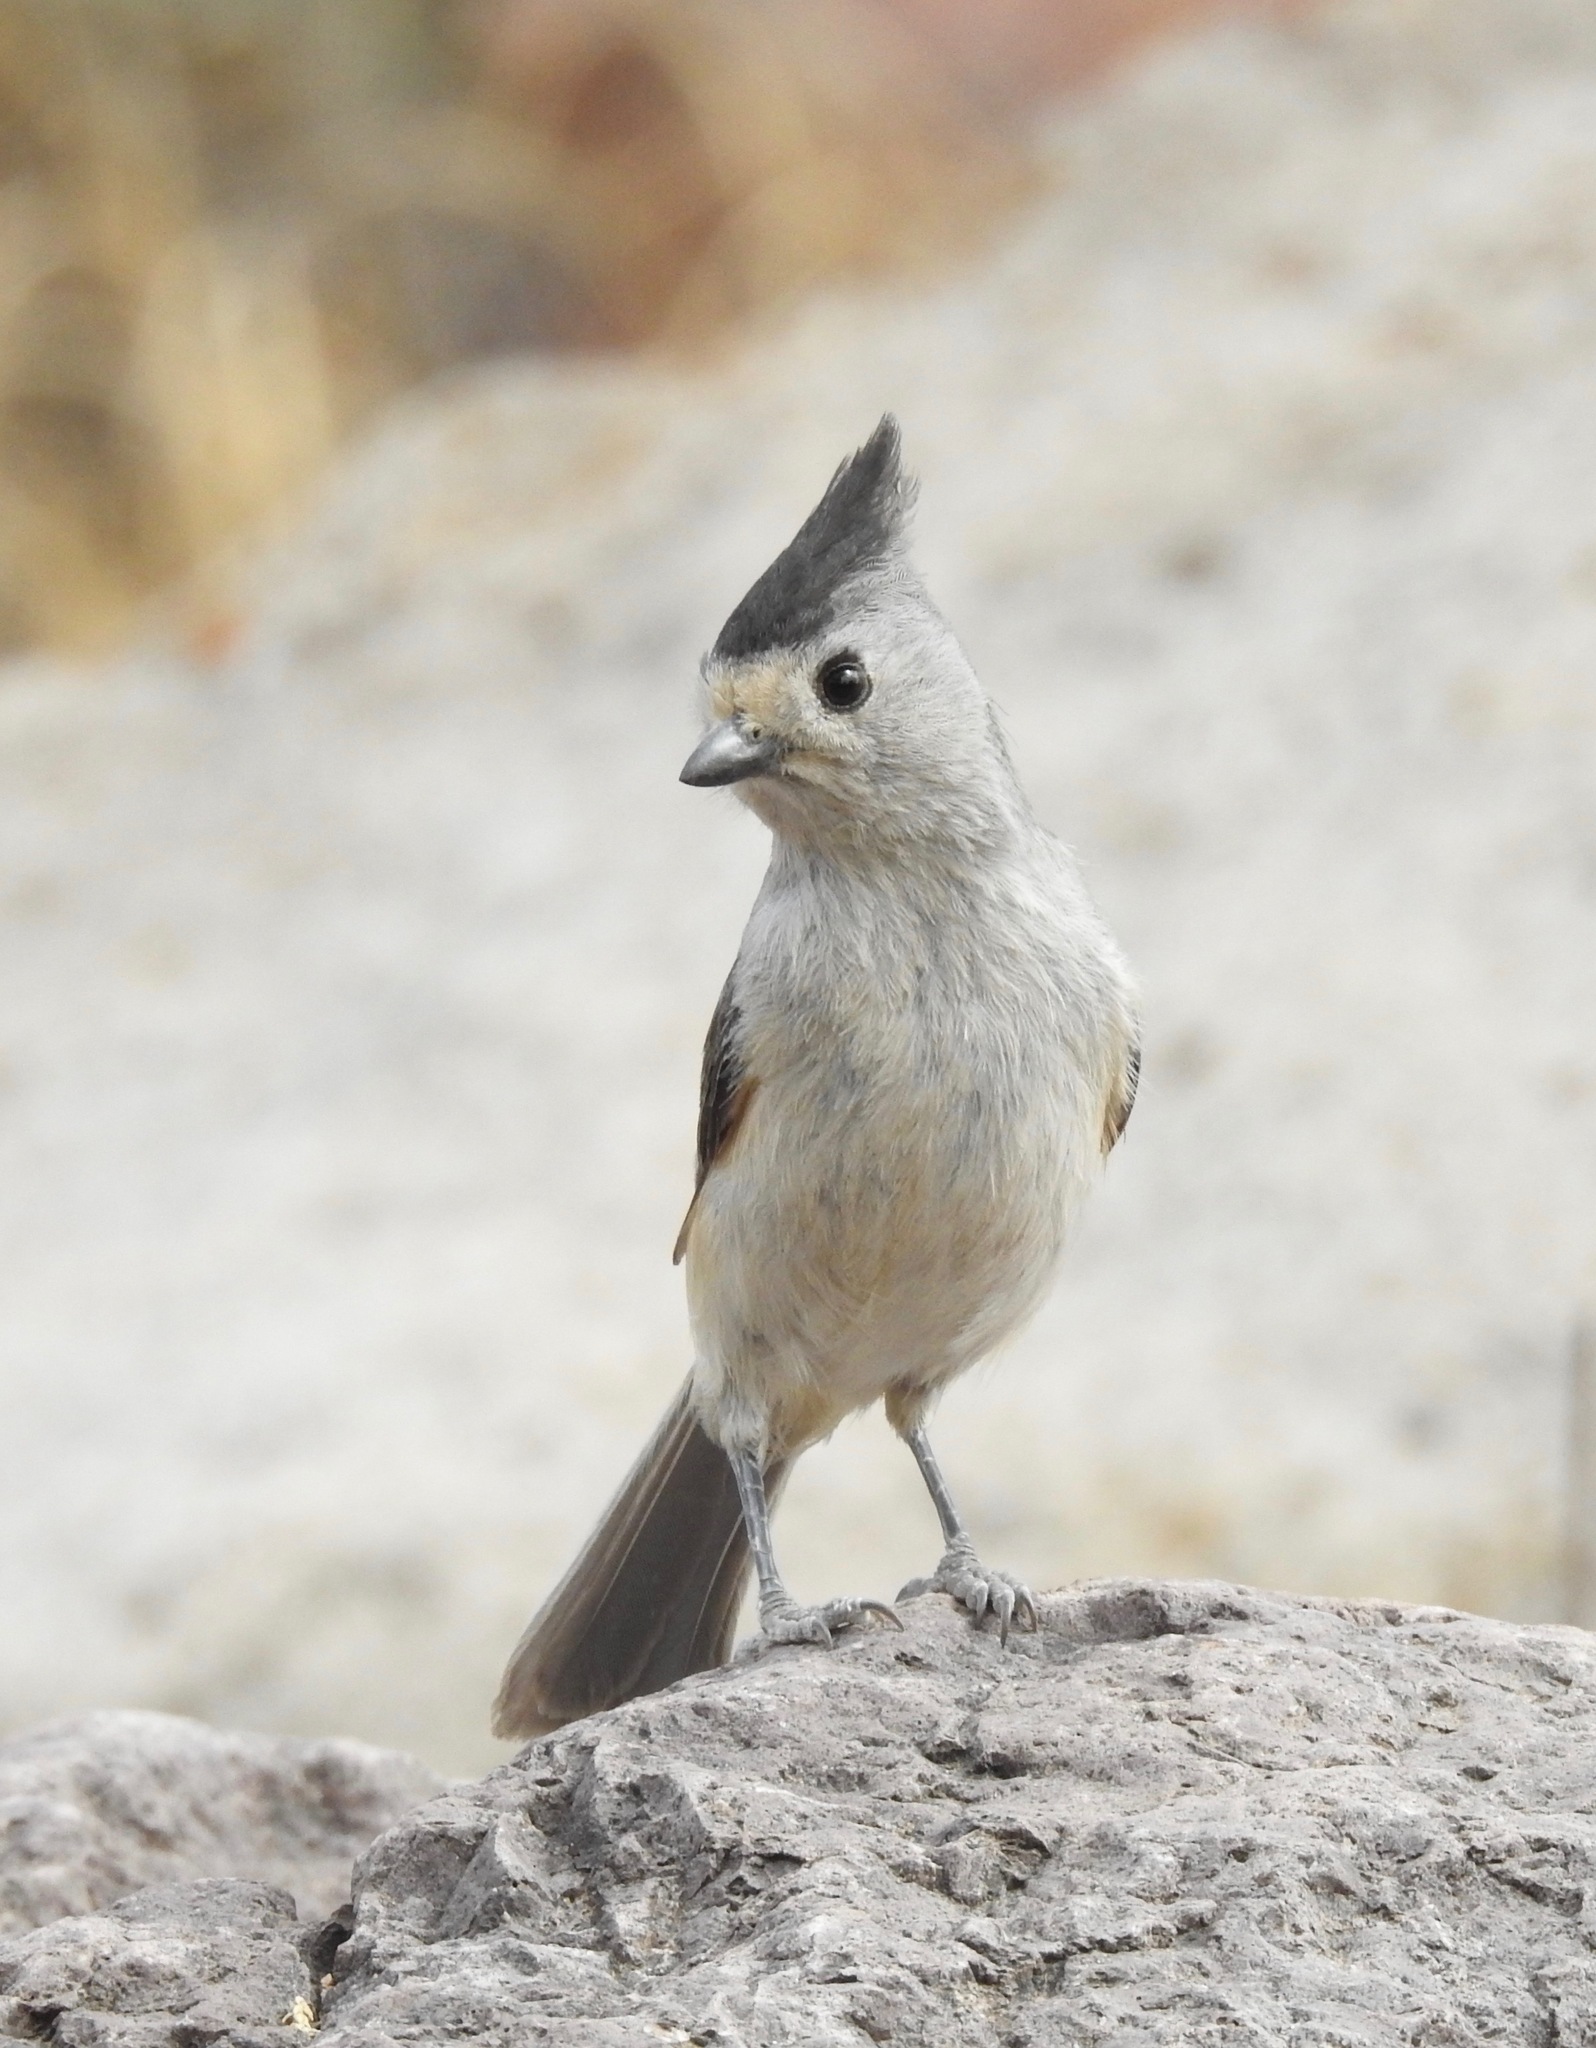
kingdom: Animalia
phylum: Chordata
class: Aves
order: Passeriformes
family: Paridae
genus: Baeolophus
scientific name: Baeolophus atricristatus
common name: Black-crested titmouse
